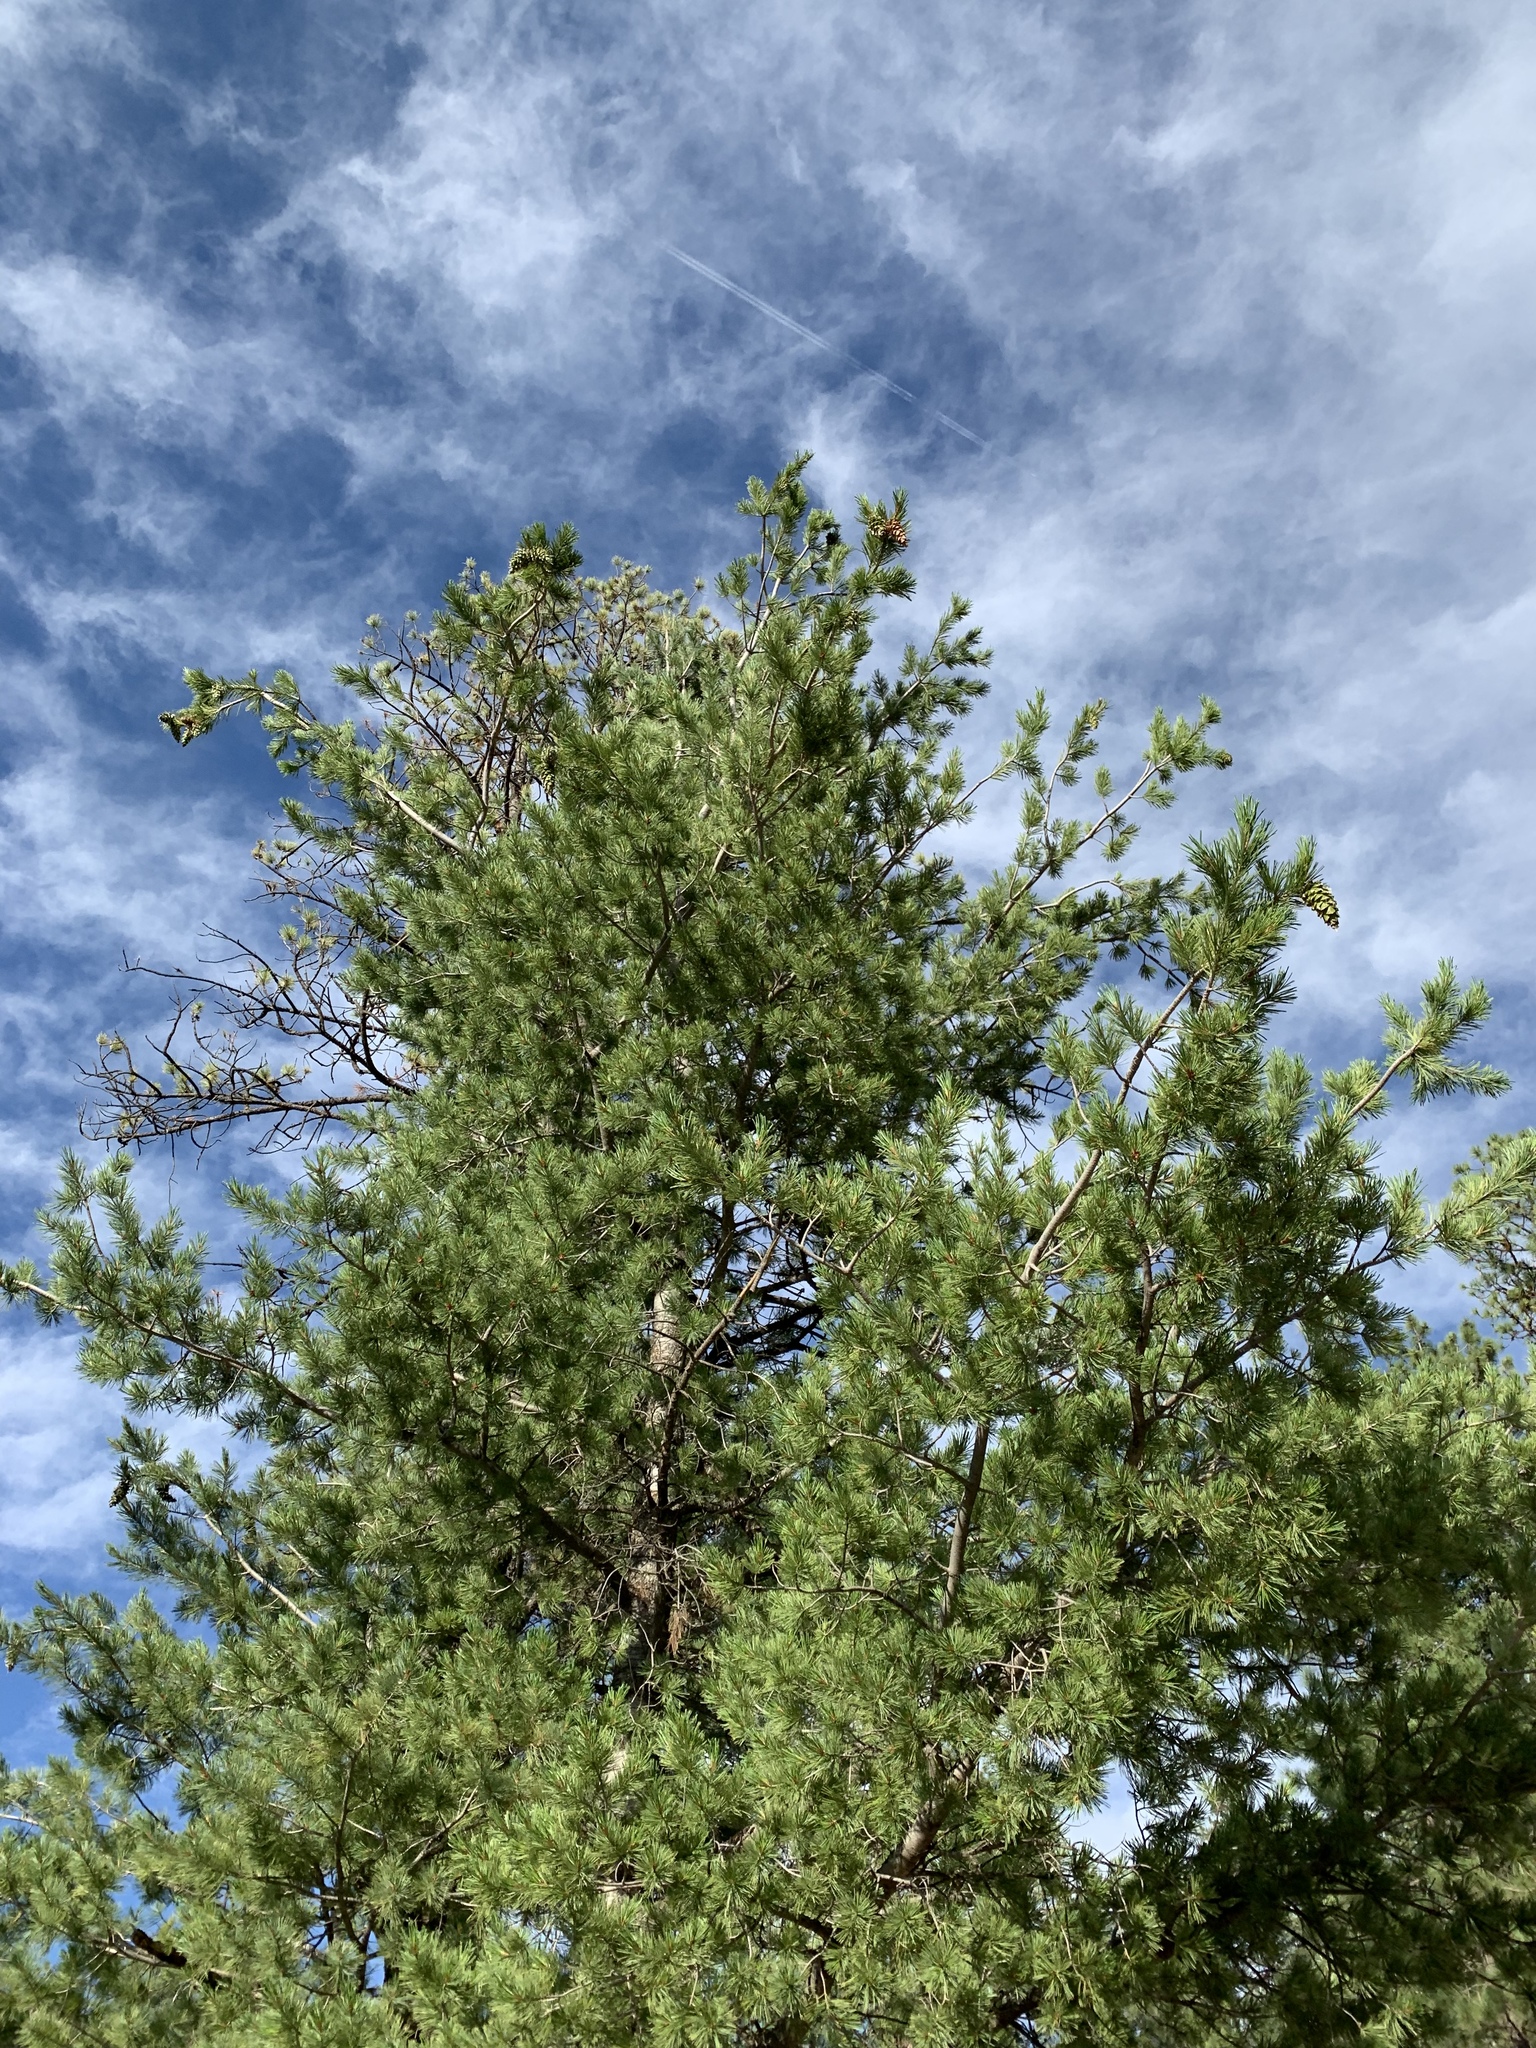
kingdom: Plantae
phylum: Tracheophyta
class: Pinopsida
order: Pinales
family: Pinaceae
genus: Pinus
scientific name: Pinus strobiformis
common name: Southwestern white pine
